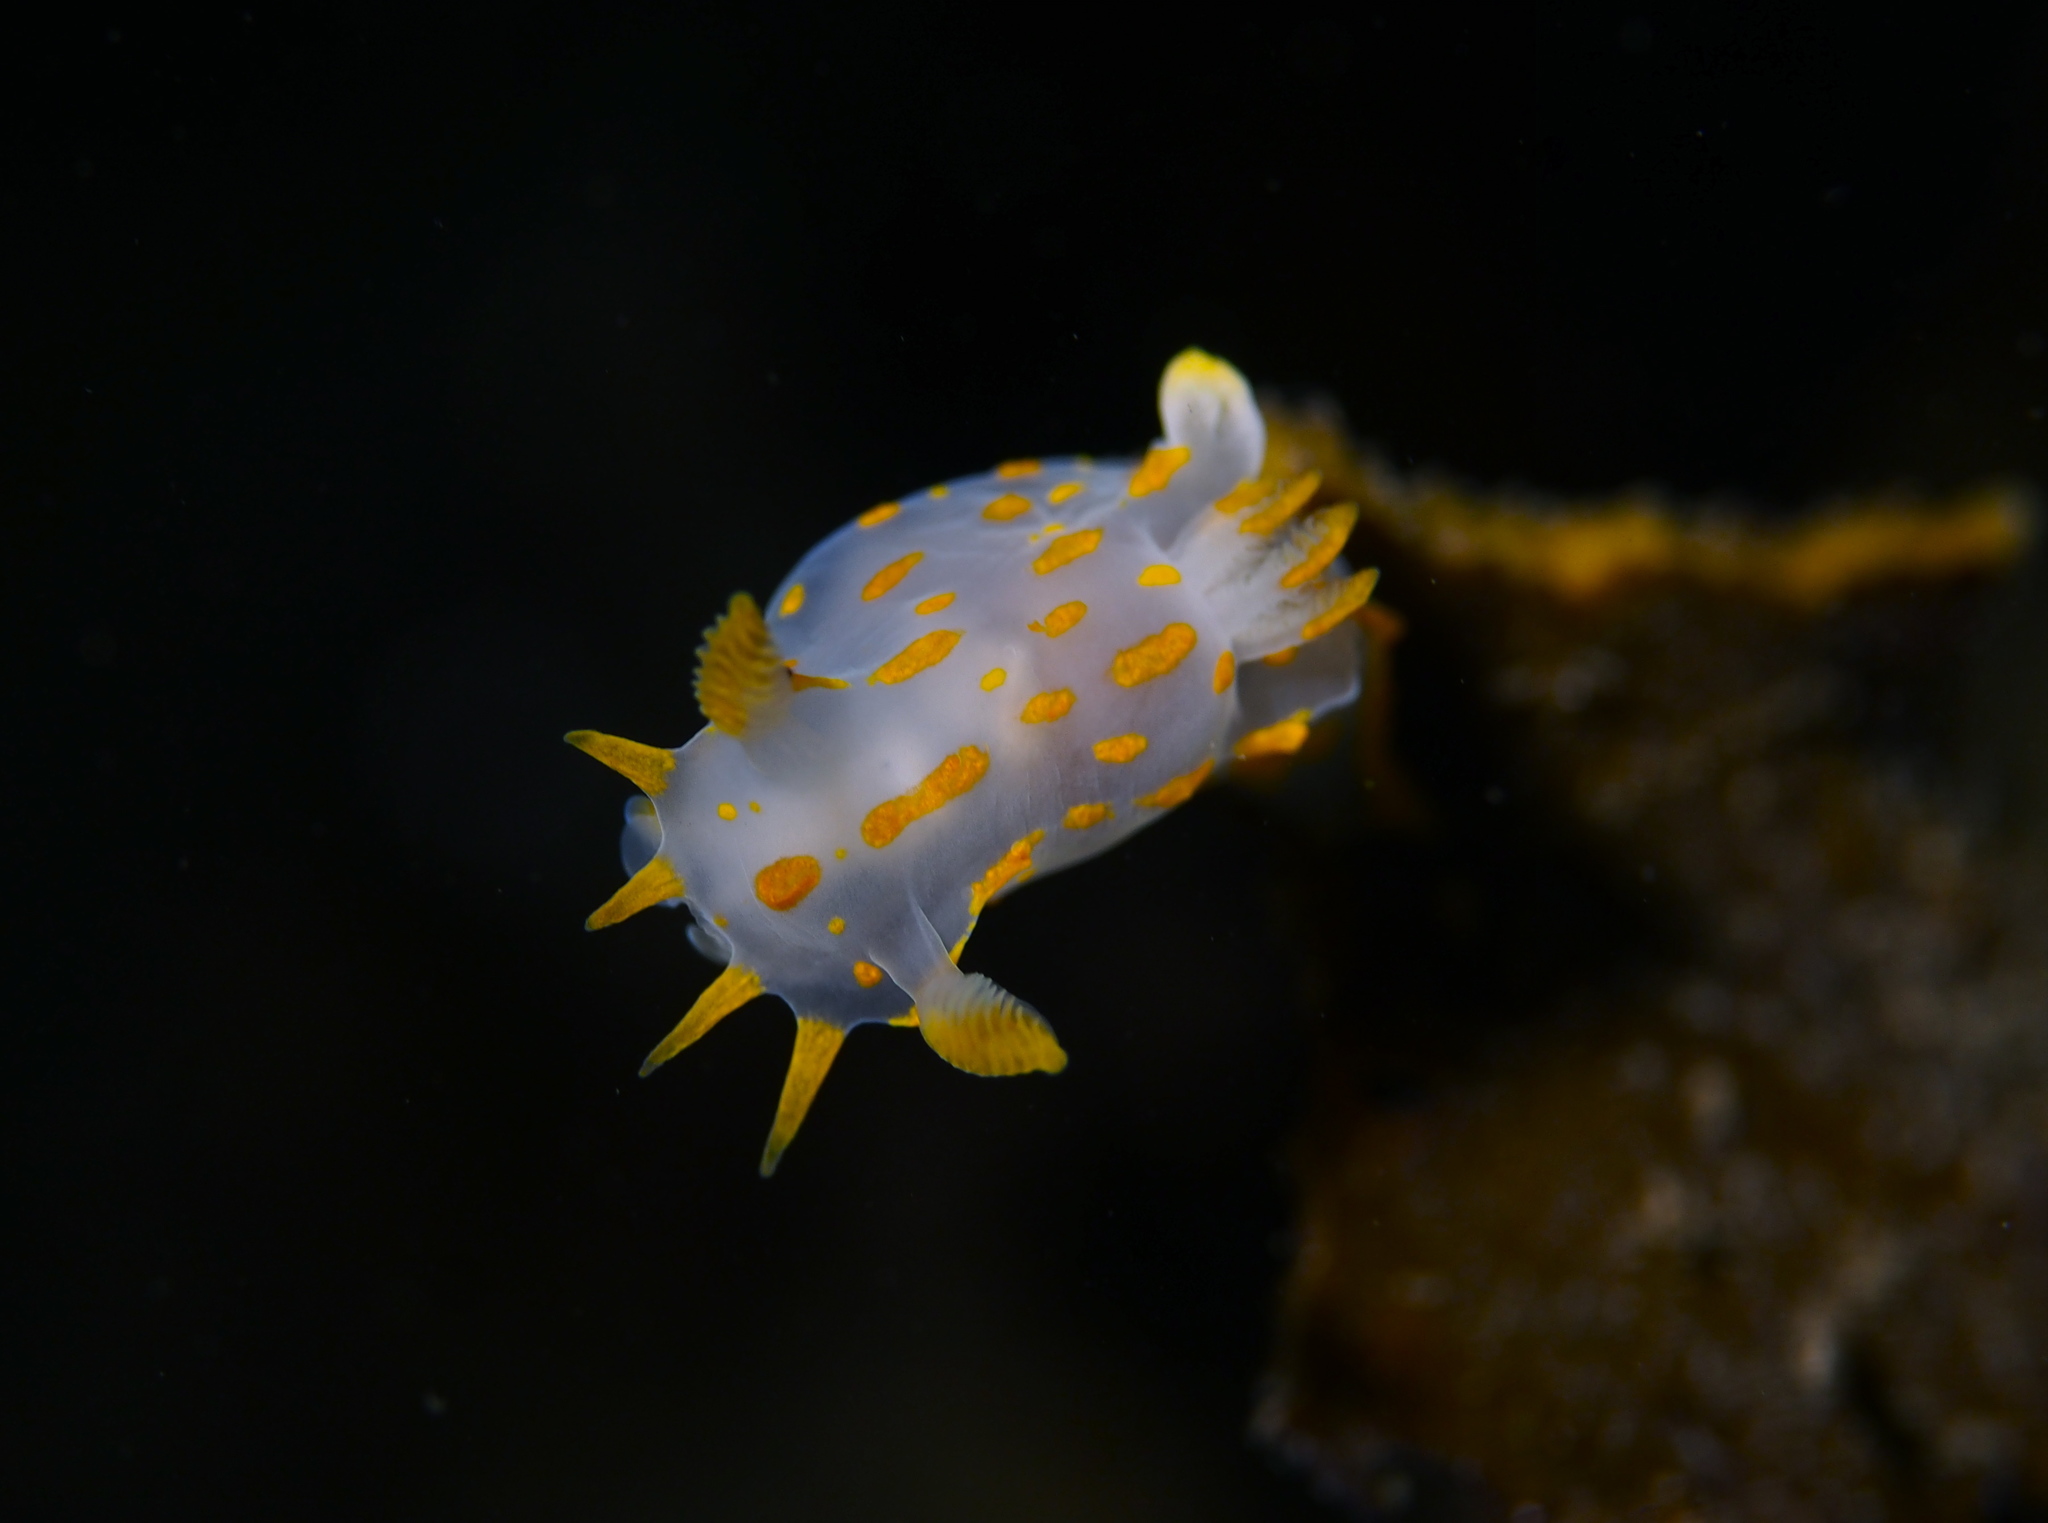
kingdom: Animalia
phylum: Mollusca
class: Gastropoda
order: Nudibranchia
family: Polyceridae
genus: Polycera
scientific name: Polycera quadrilineata
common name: Four-striped polycera
